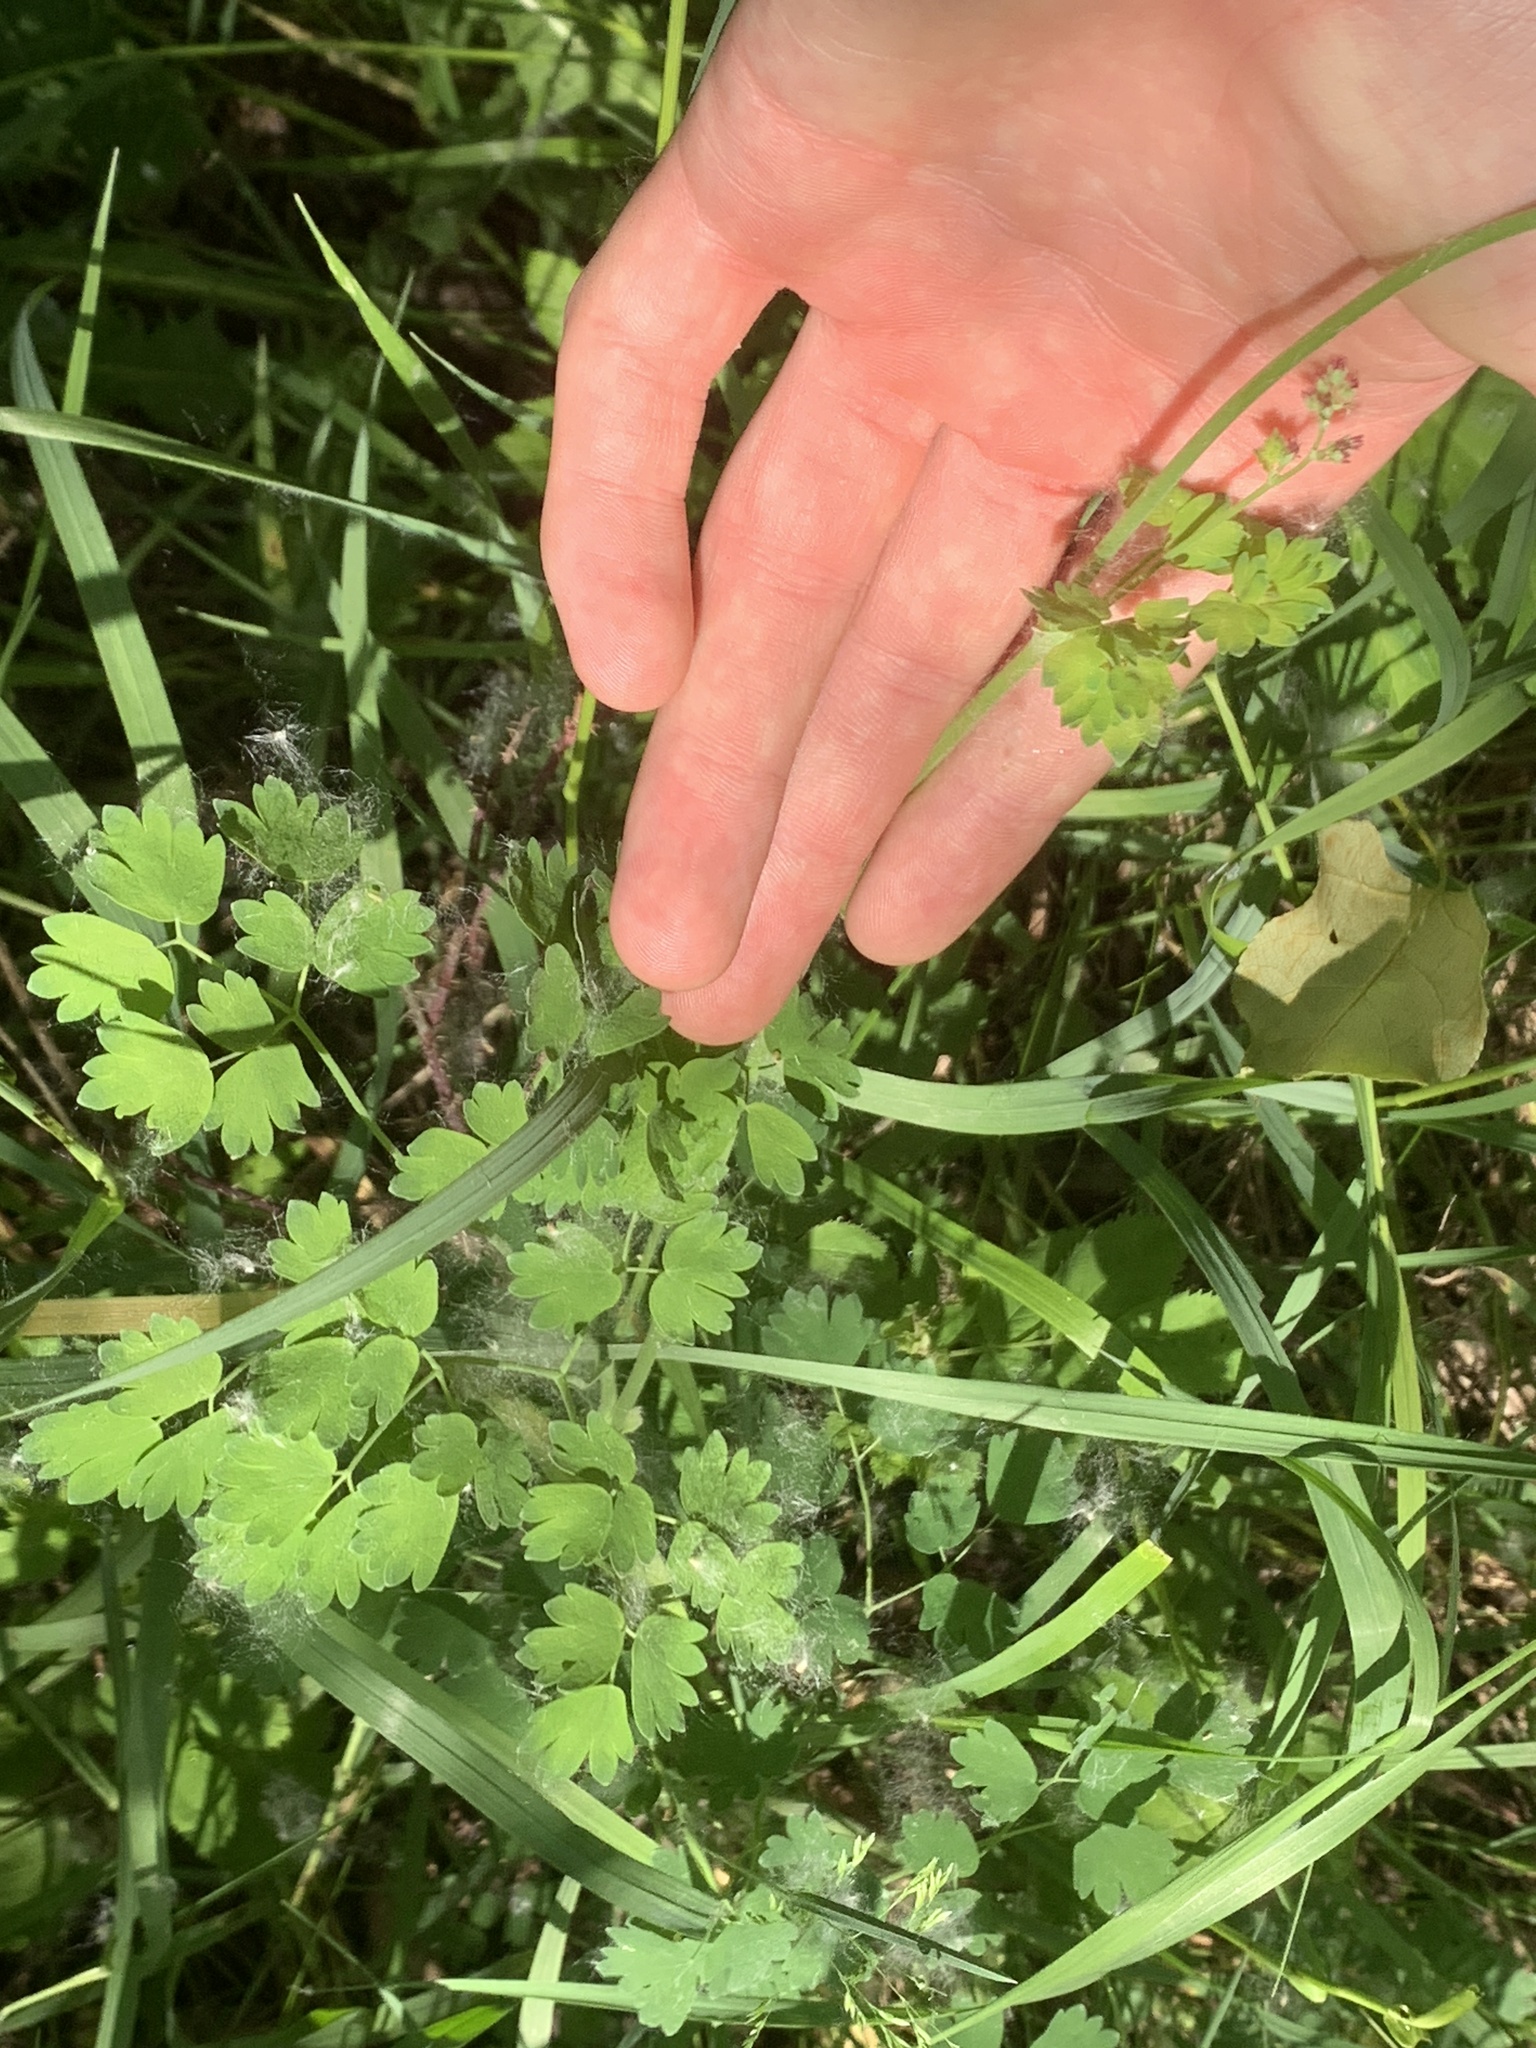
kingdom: Plantae
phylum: Tracheophyta
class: Magnoliopsida
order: Ranunculales
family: Ranunculaceae
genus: Thalictrum
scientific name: Thalictrum venulosum
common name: Early meadow-rue
